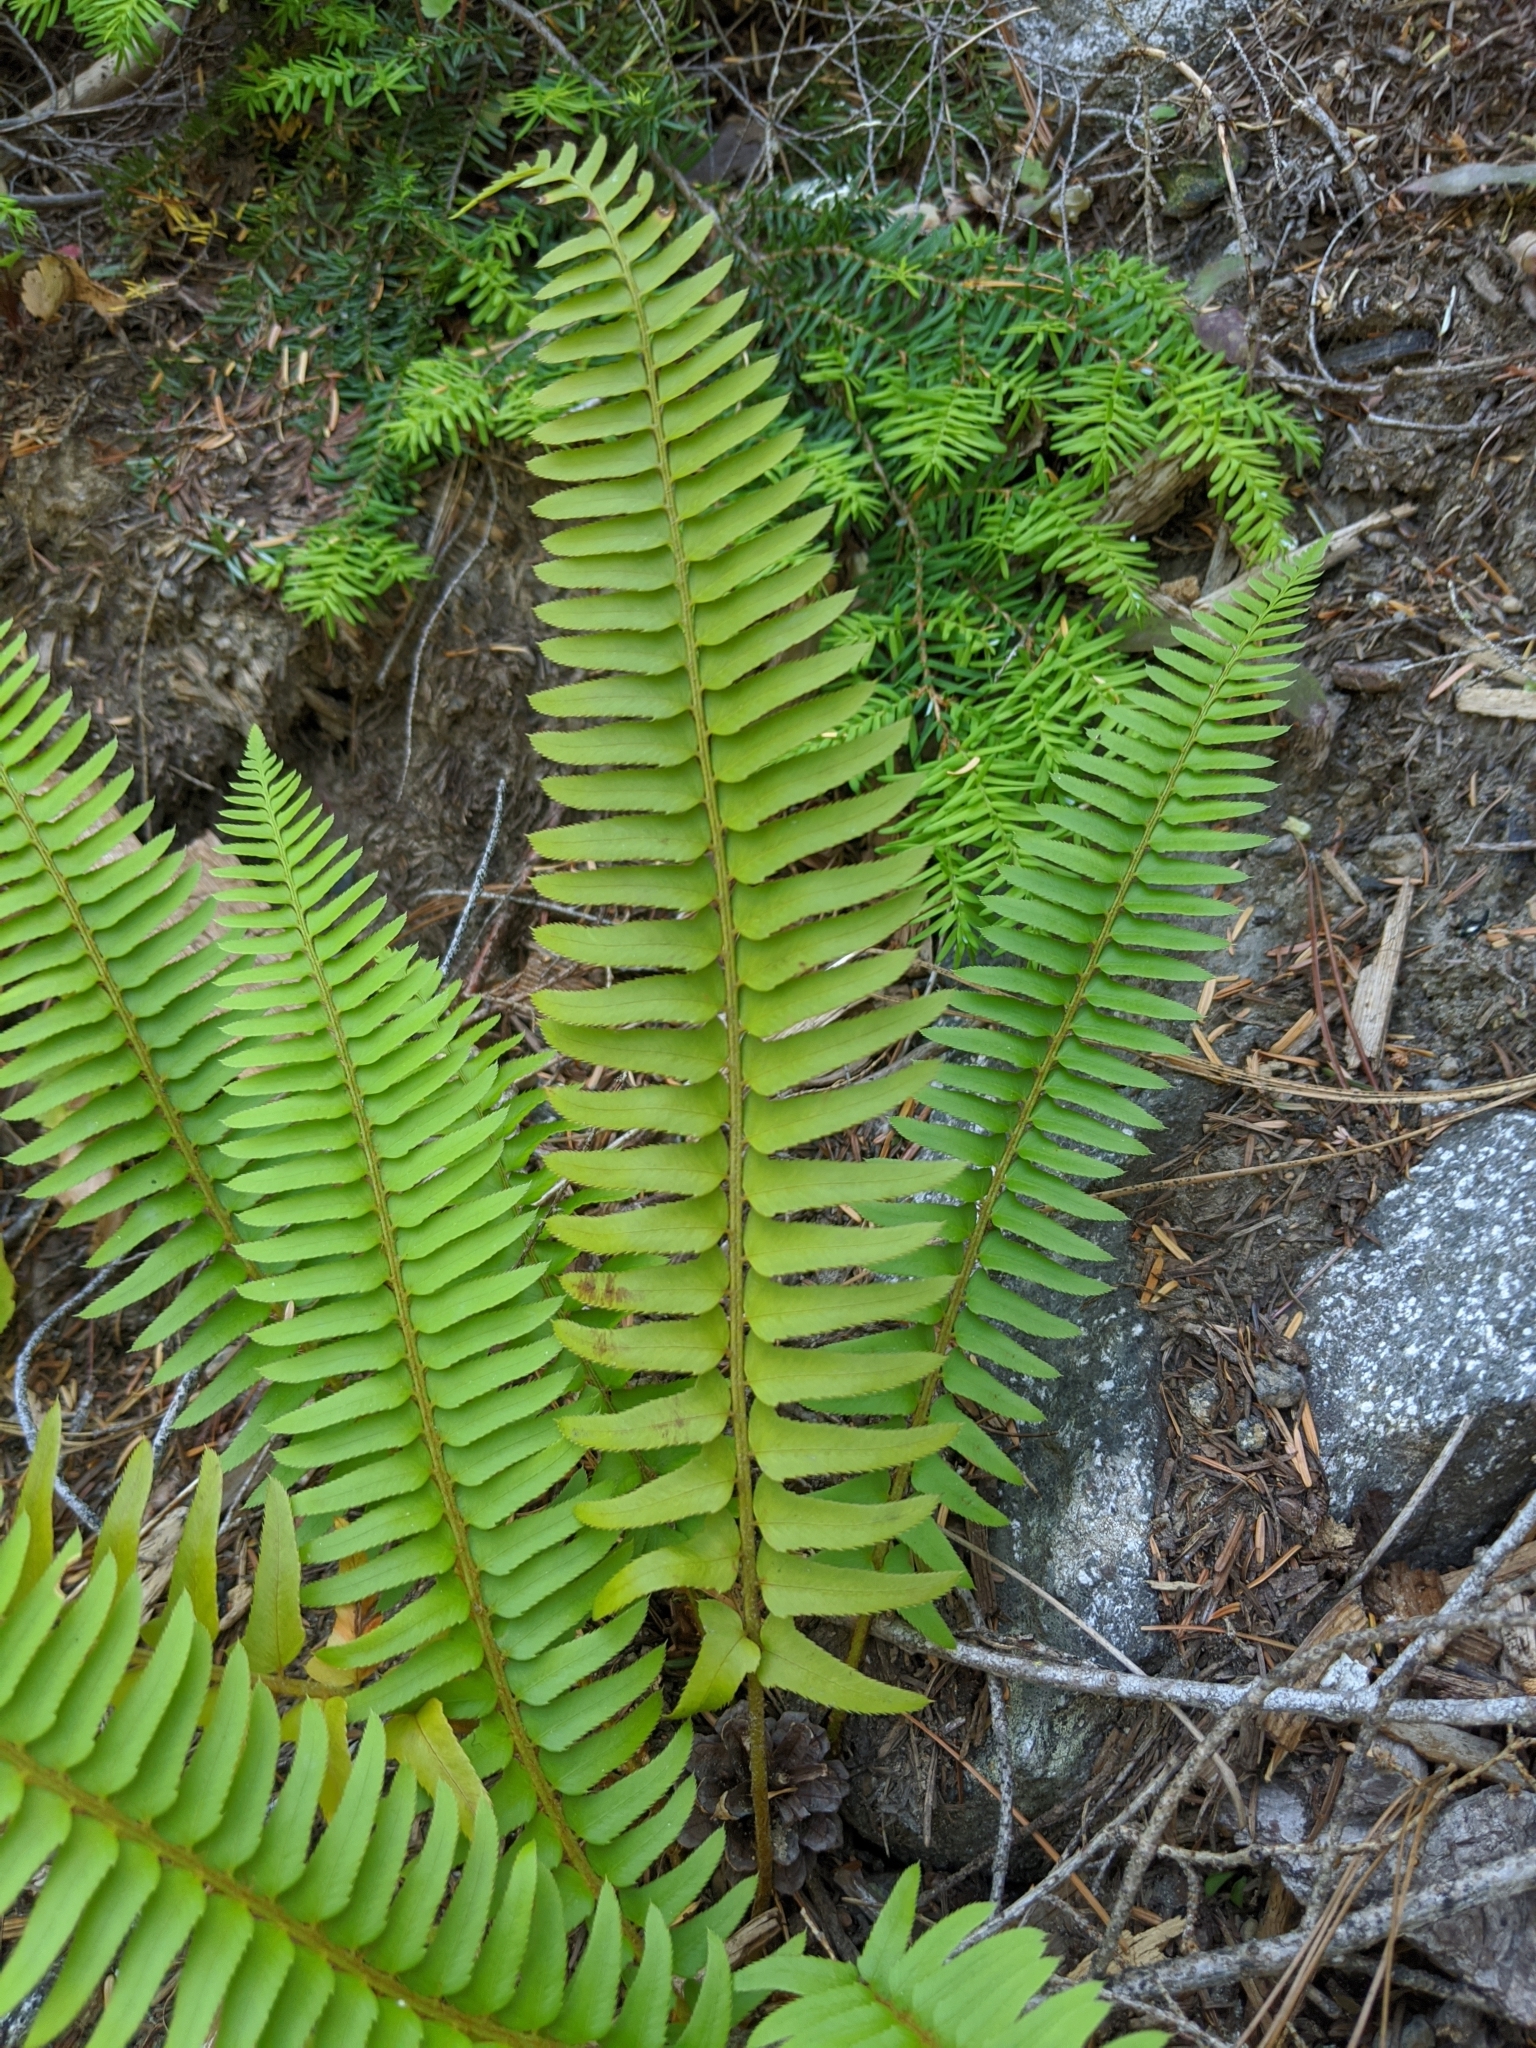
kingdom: Plantae
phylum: Tracheophyta
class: Polypodiopsida
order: Polypodiales
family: Dryopteridaceae
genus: Polystichum
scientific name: Polystichum munitum
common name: Western sword-fern
